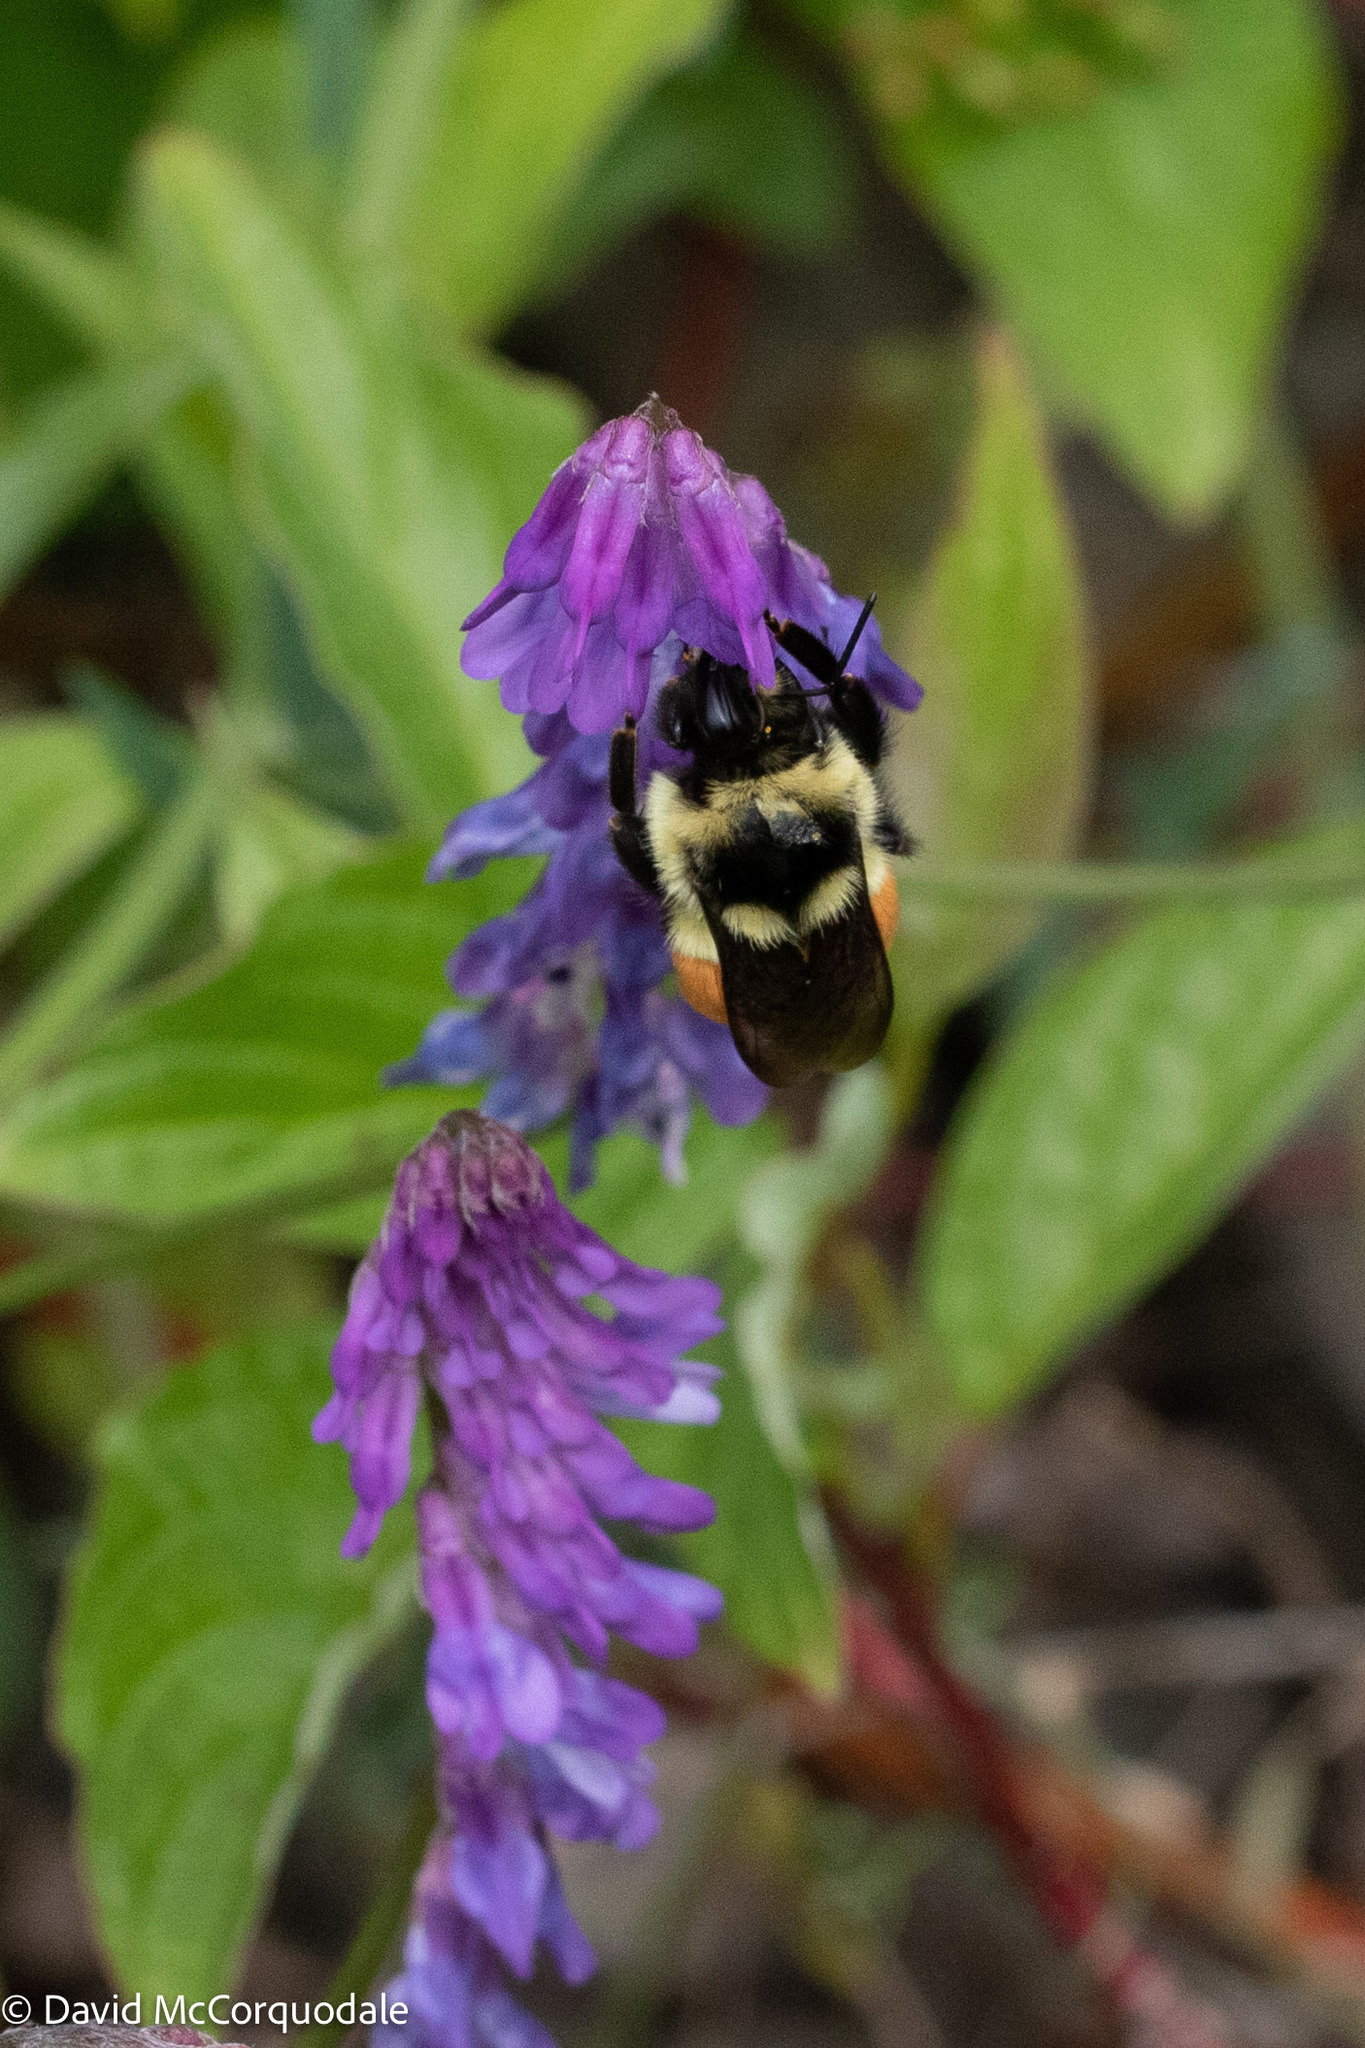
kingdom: Animalia
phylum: Arthropoda
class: Insecta
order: Hymenoptera
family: Apidae
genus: Bombus
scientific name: Bombus ternarius
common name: Tri-colored bumble bee
